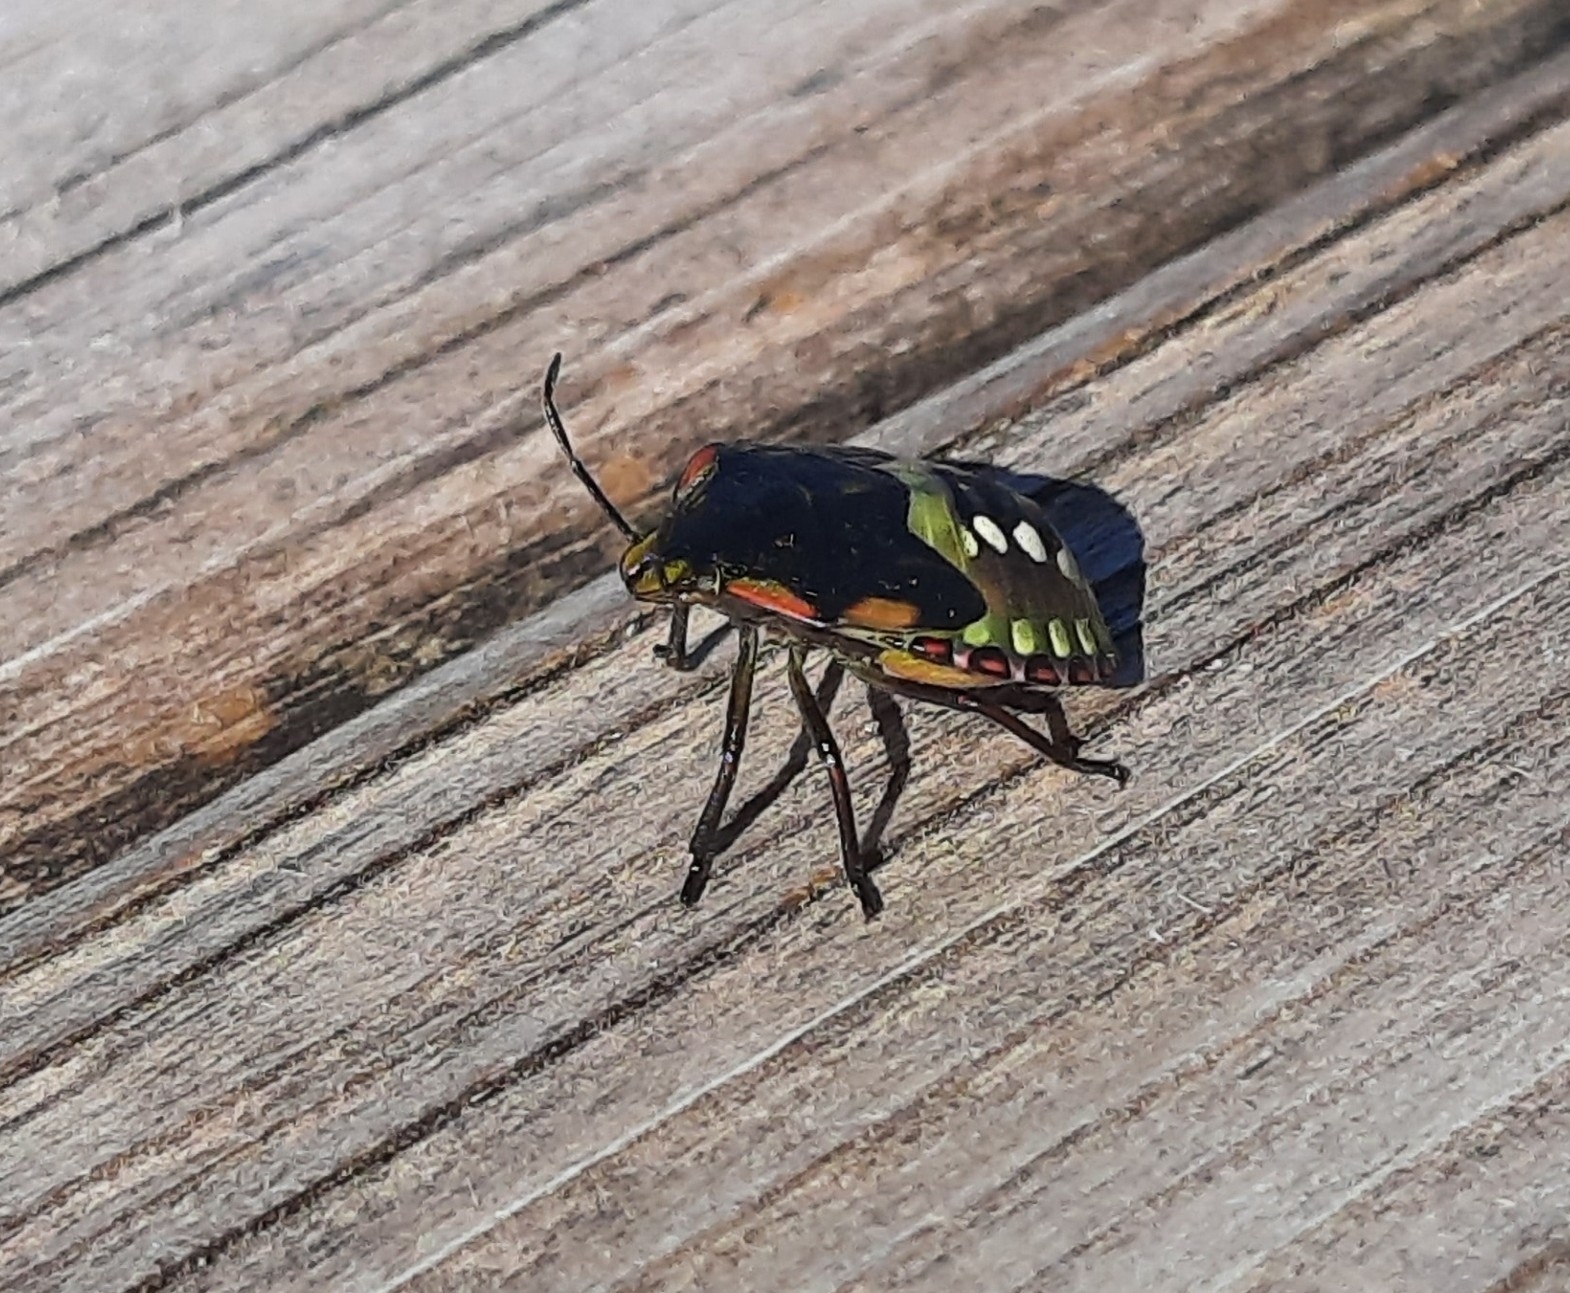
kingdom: Animalia
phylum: Arthropoda
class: Insecta
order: Hemiptera
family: Pentatomidae
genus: Nezara
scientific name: Nezara viridula
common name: Southern green stink bug
